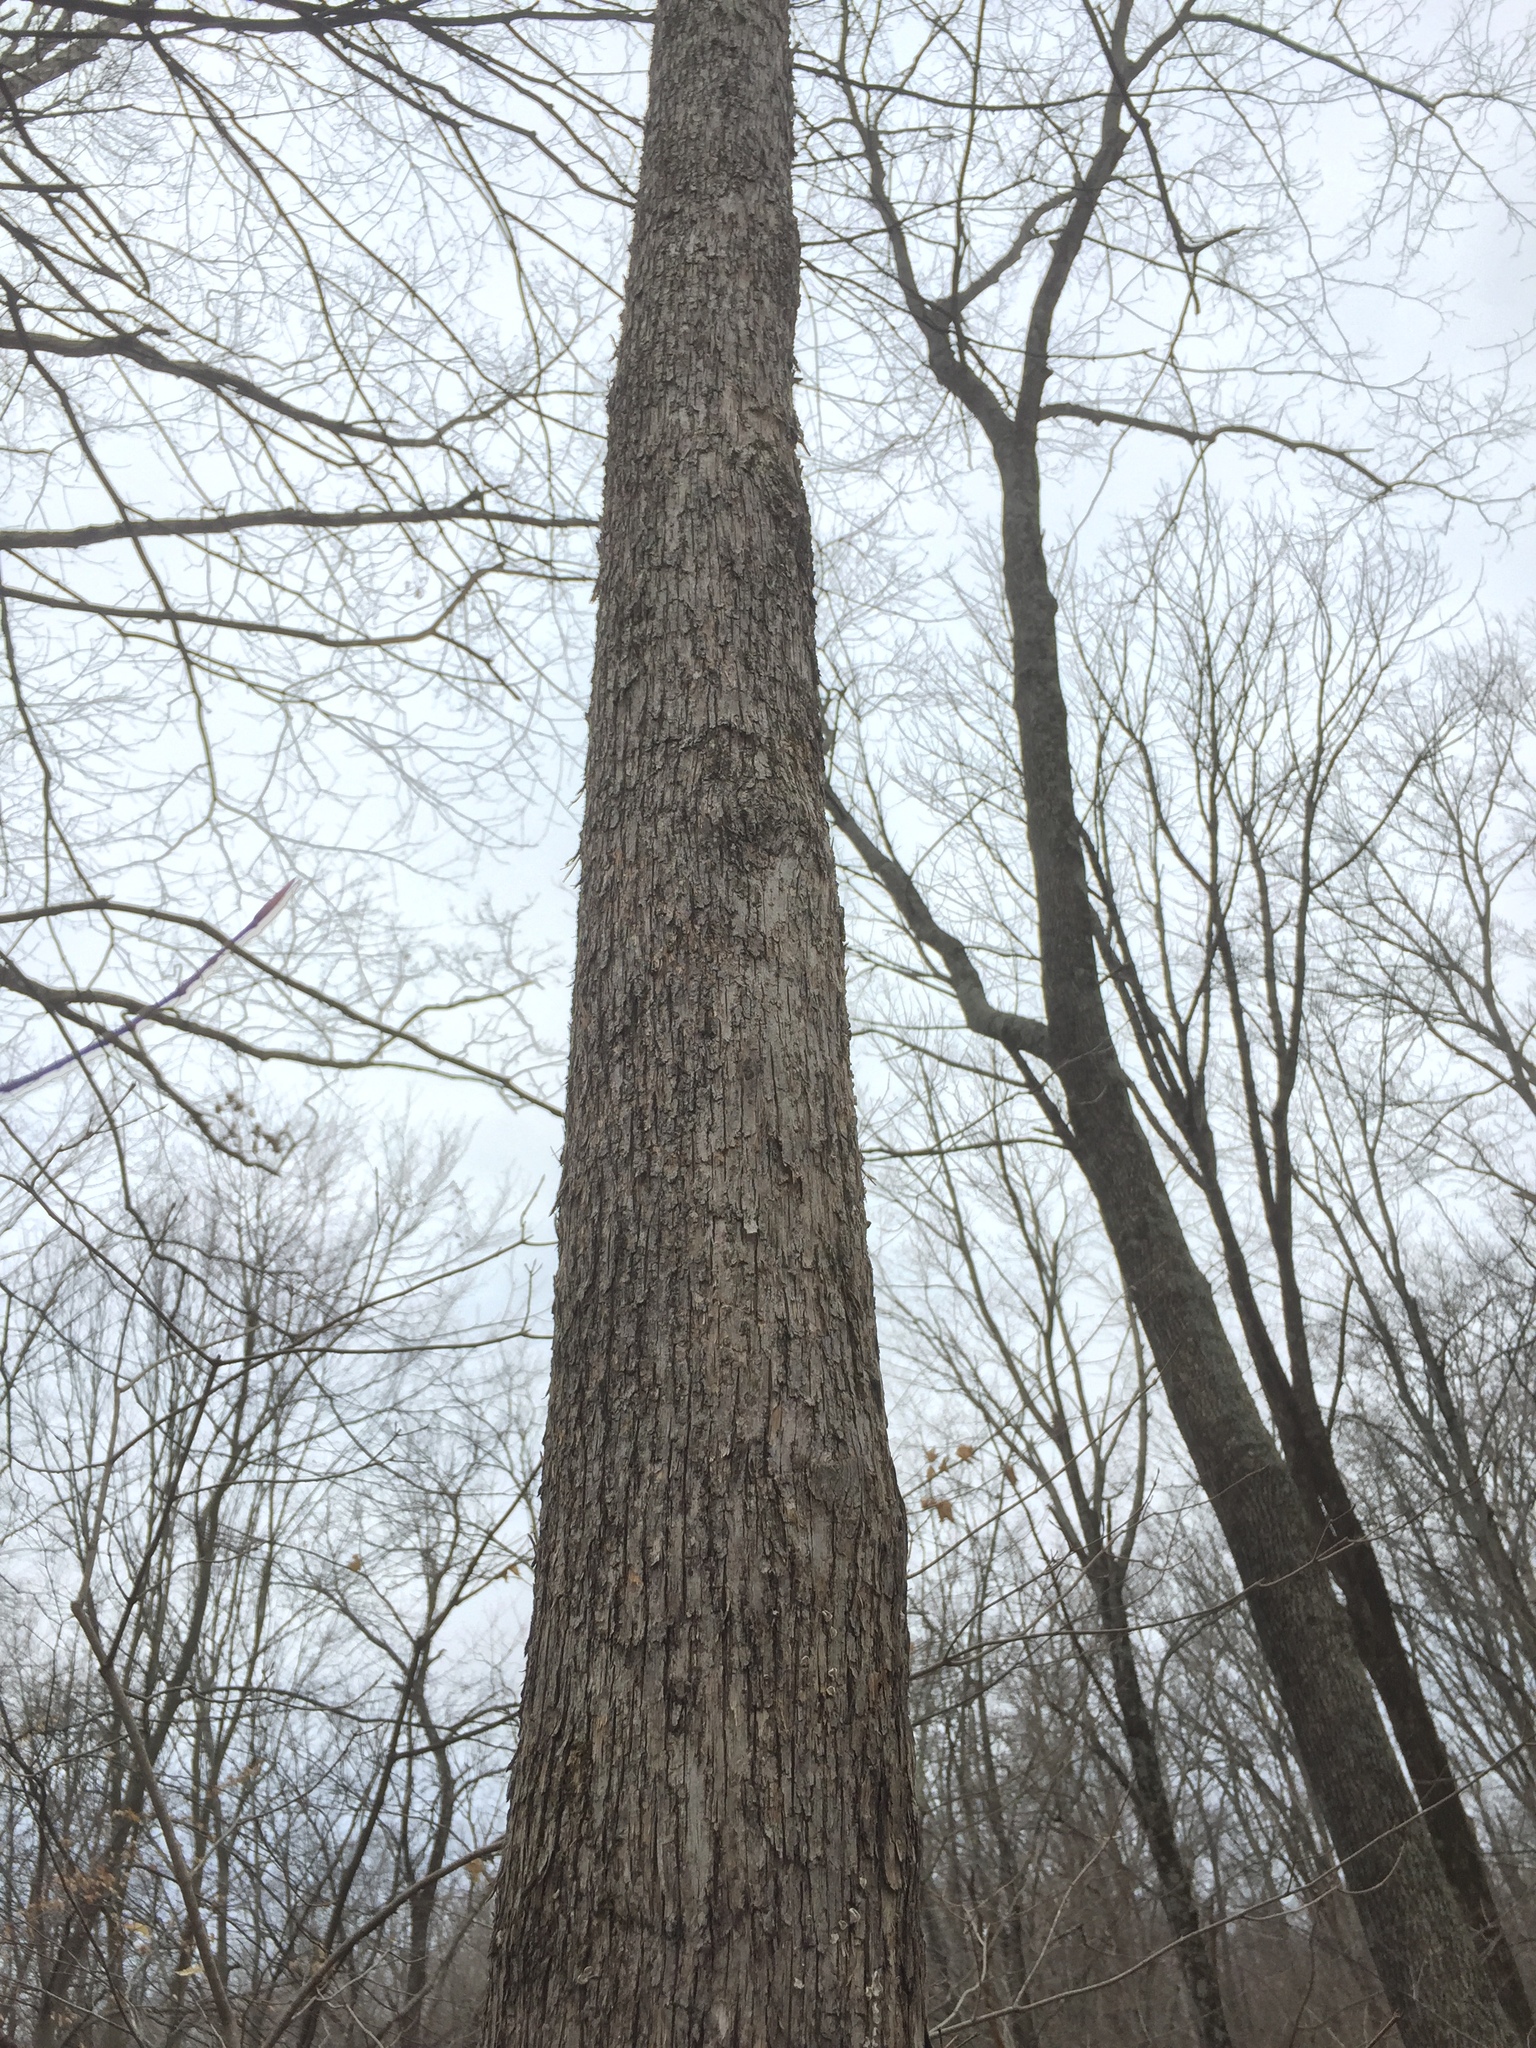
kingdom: Plantae
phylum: Tracheophyta
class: Magnoliopsida
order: Fagales
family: Betulaceae
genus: Ostrya
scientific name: Ostrya virginiana
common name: Ironwood
